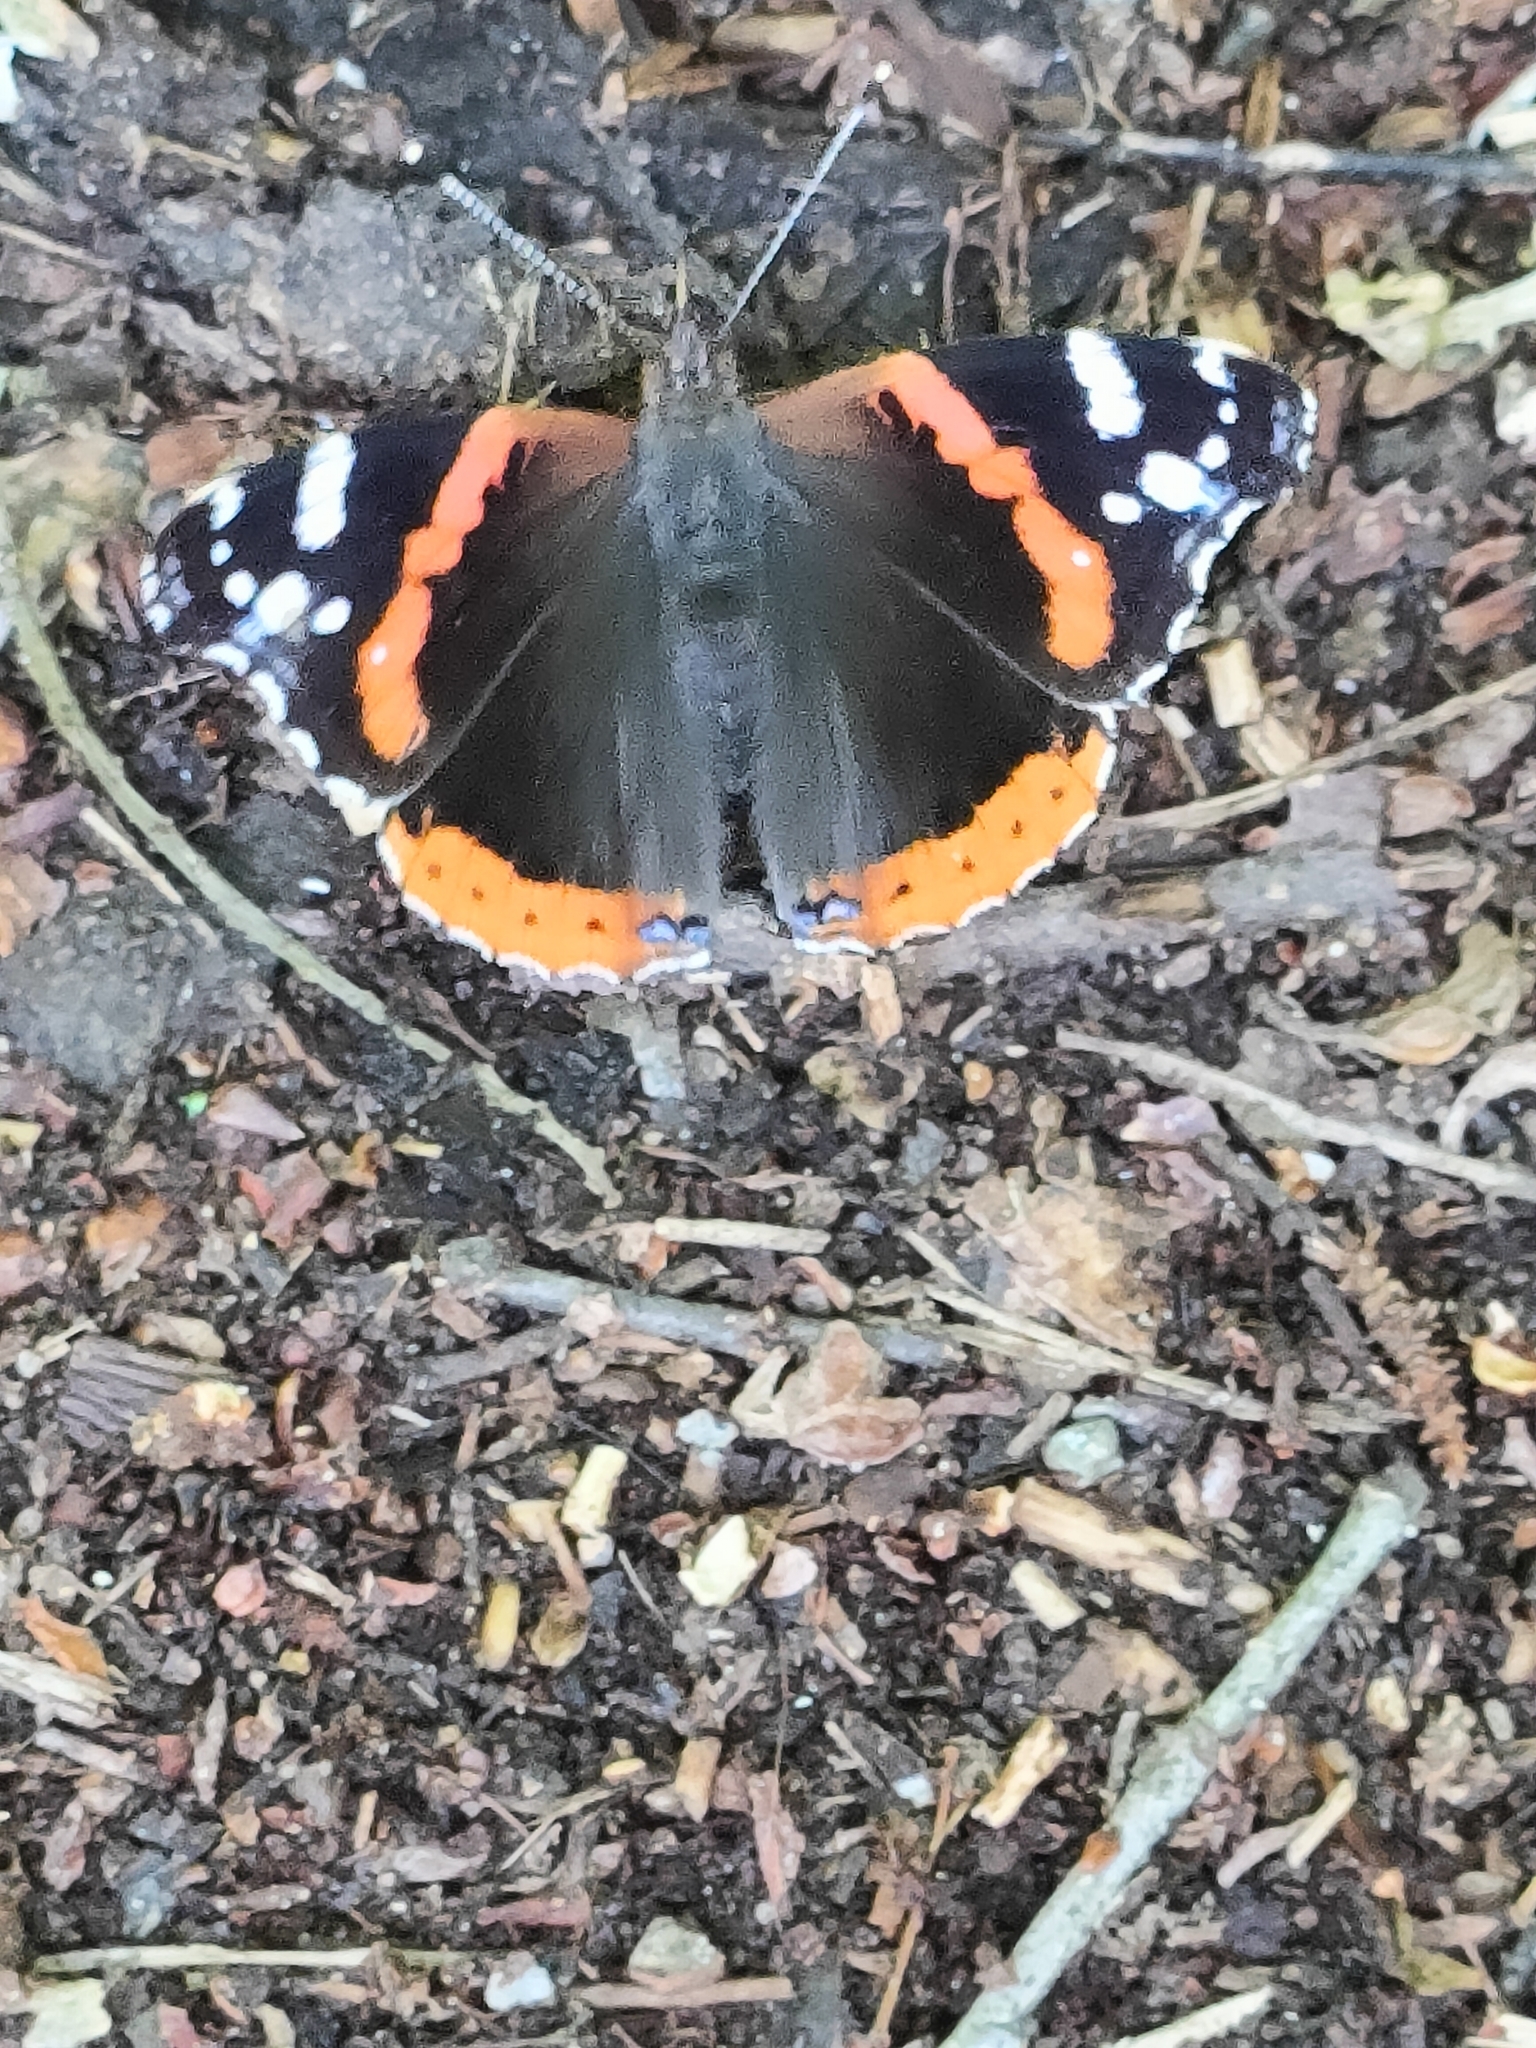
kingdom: Animalia
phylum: Arthropoda
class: Insecta
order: Lepidoptera
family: Nymphalidae
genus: Vanessa
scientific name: Vanessa atalanta
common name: Red admiral
